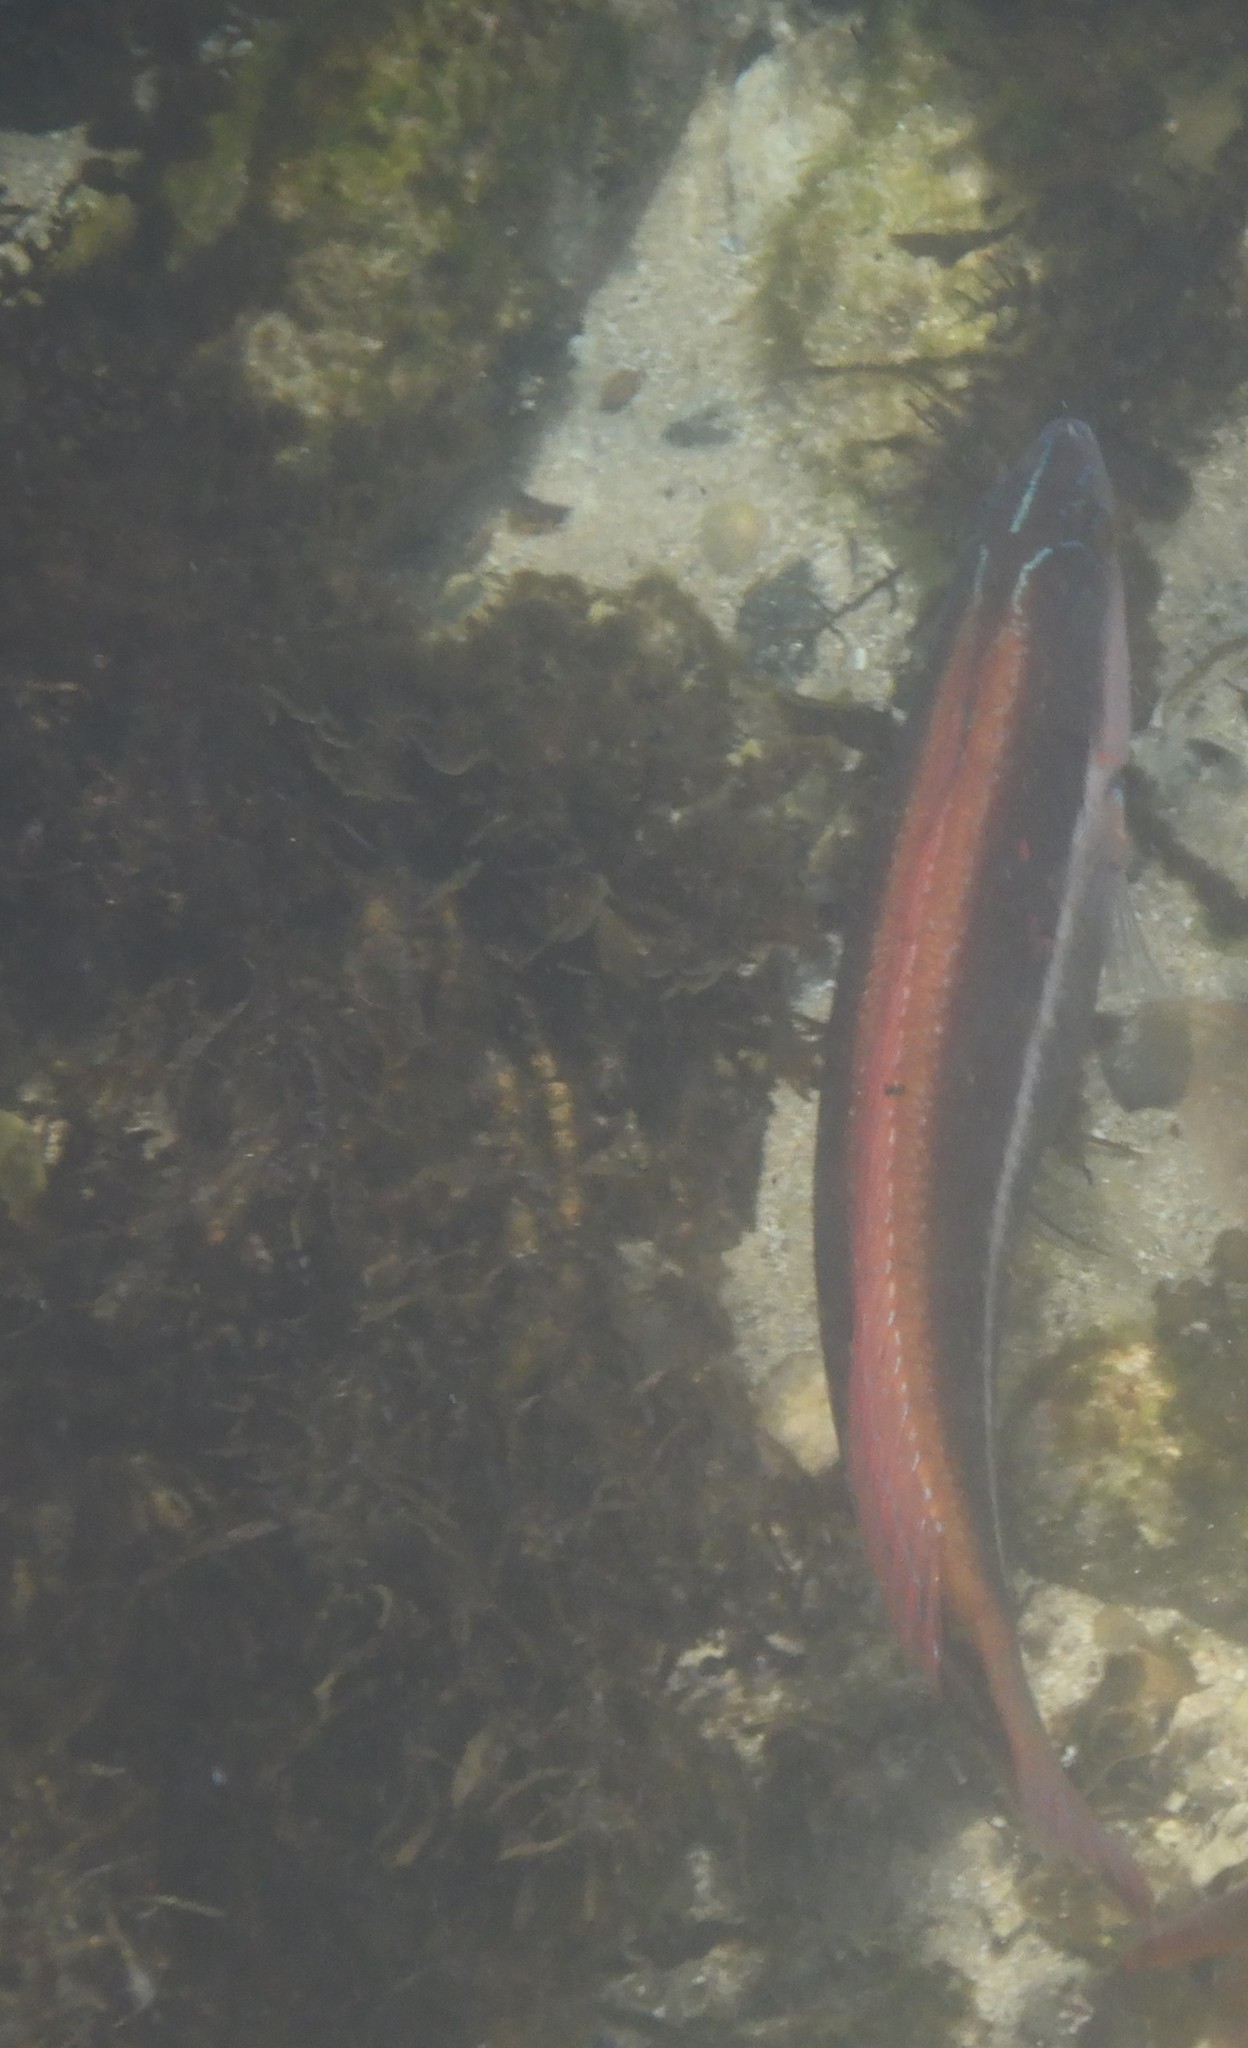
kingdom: Animalia
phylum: Chordata
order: Perciformes
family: Labridae
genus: Ophthalmolepis
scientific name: Ophthalmolepis lineolata
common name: Maori wrasse
